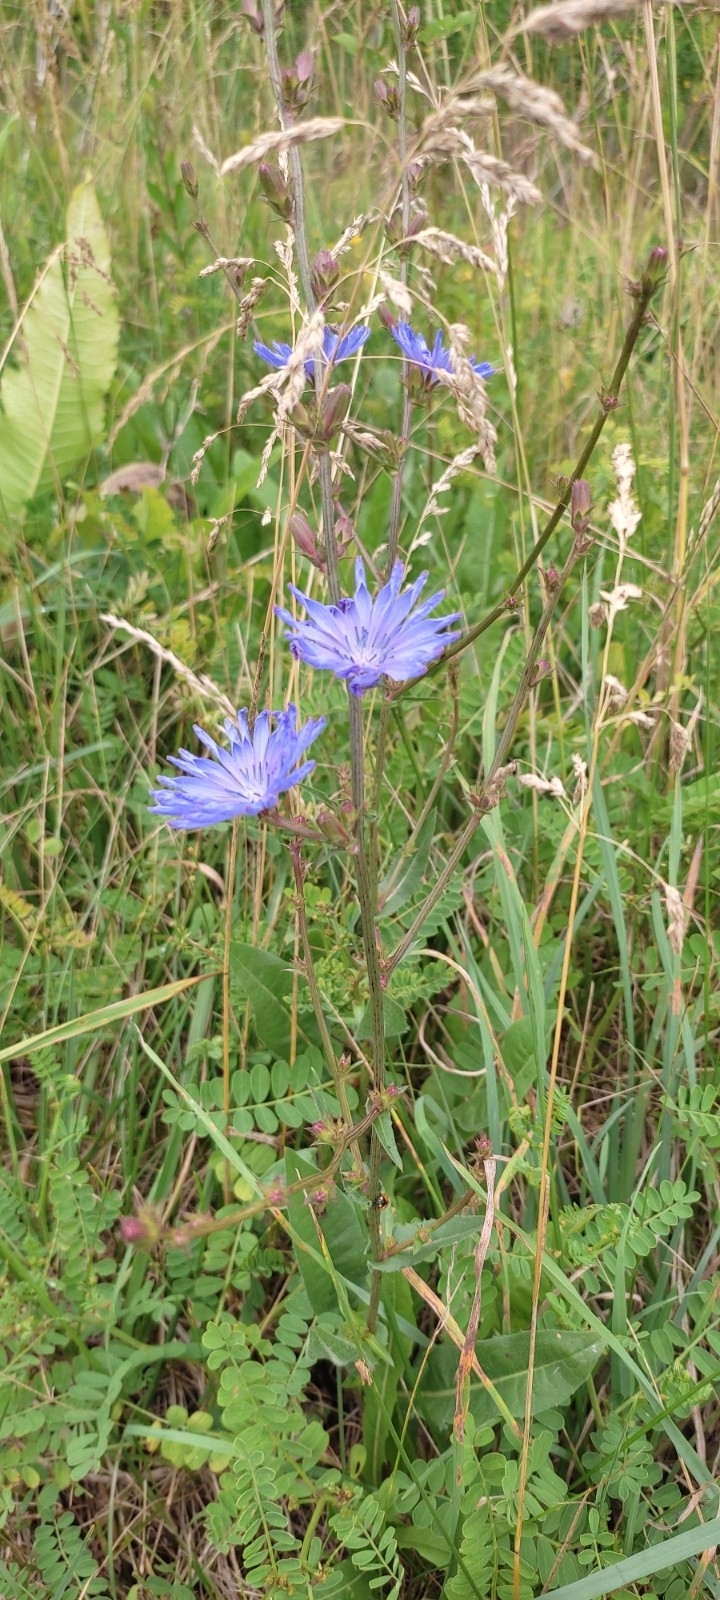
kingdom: Plantae
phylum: Tracheophyta
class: Magnoliopsida
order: Asterales
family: Asteraceae
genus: Cichorium
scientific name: Cichorium intybus
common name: Chicory
